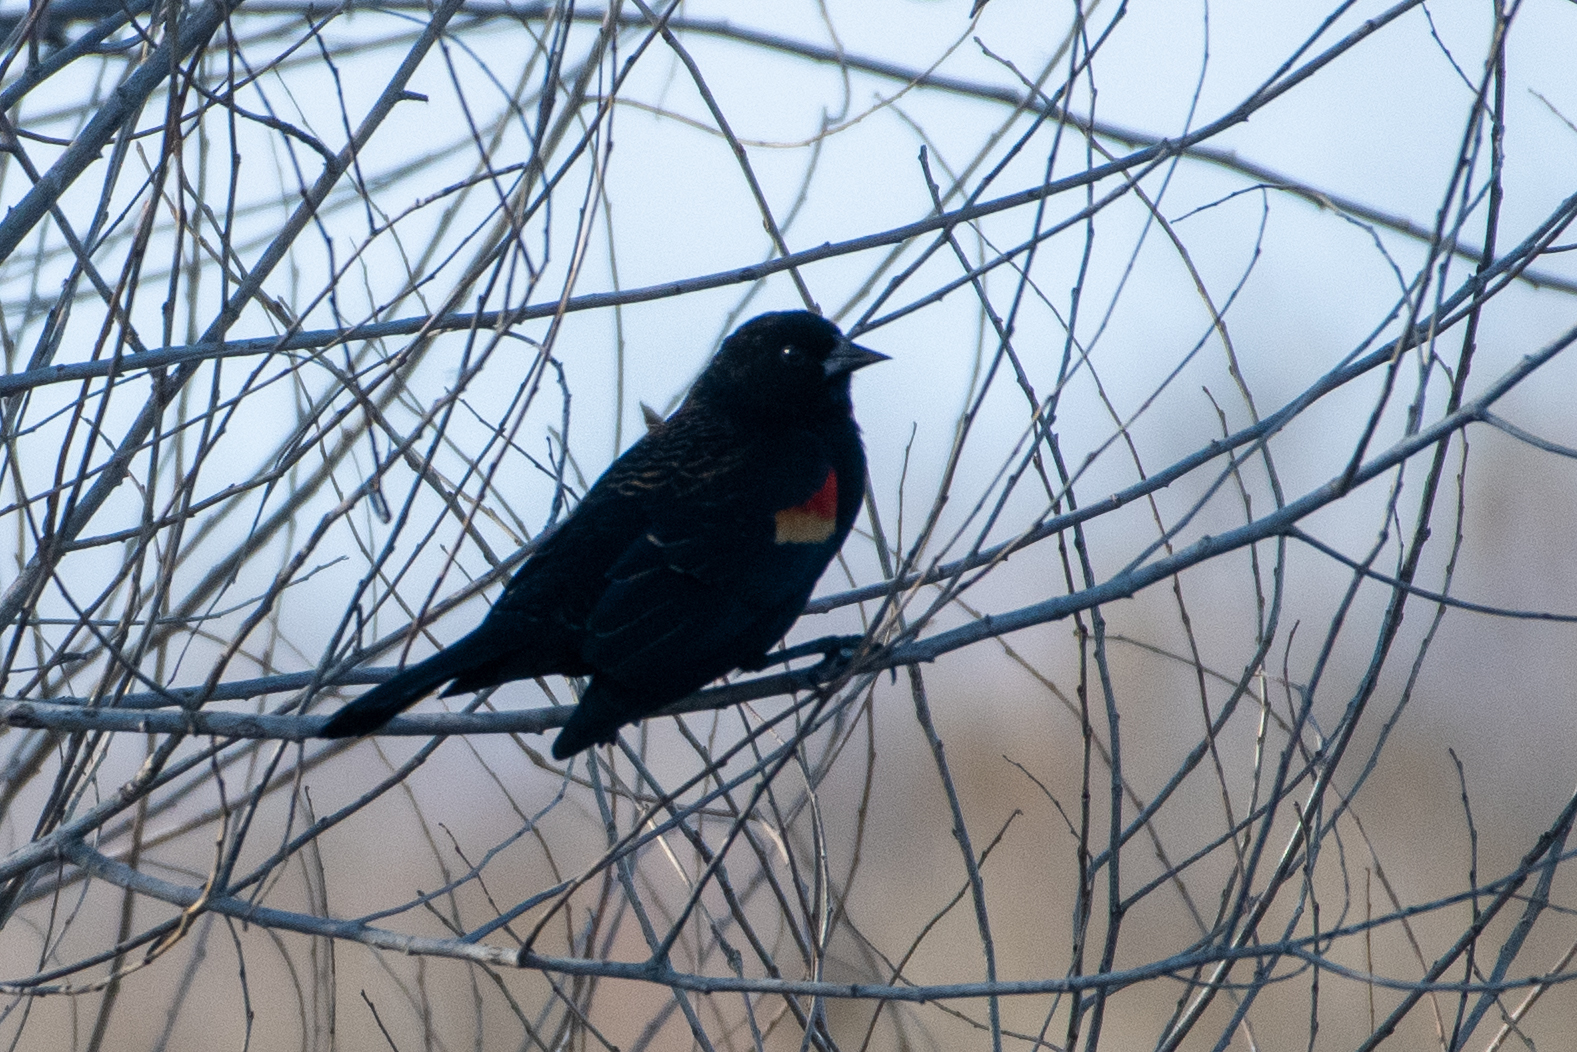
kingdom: Animalia
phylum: Chordata
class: Aves
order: Passeriformes
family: Icteridae
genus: Agelaius
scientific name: Agelaius phoeniceus
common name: Red-winged blackbird
